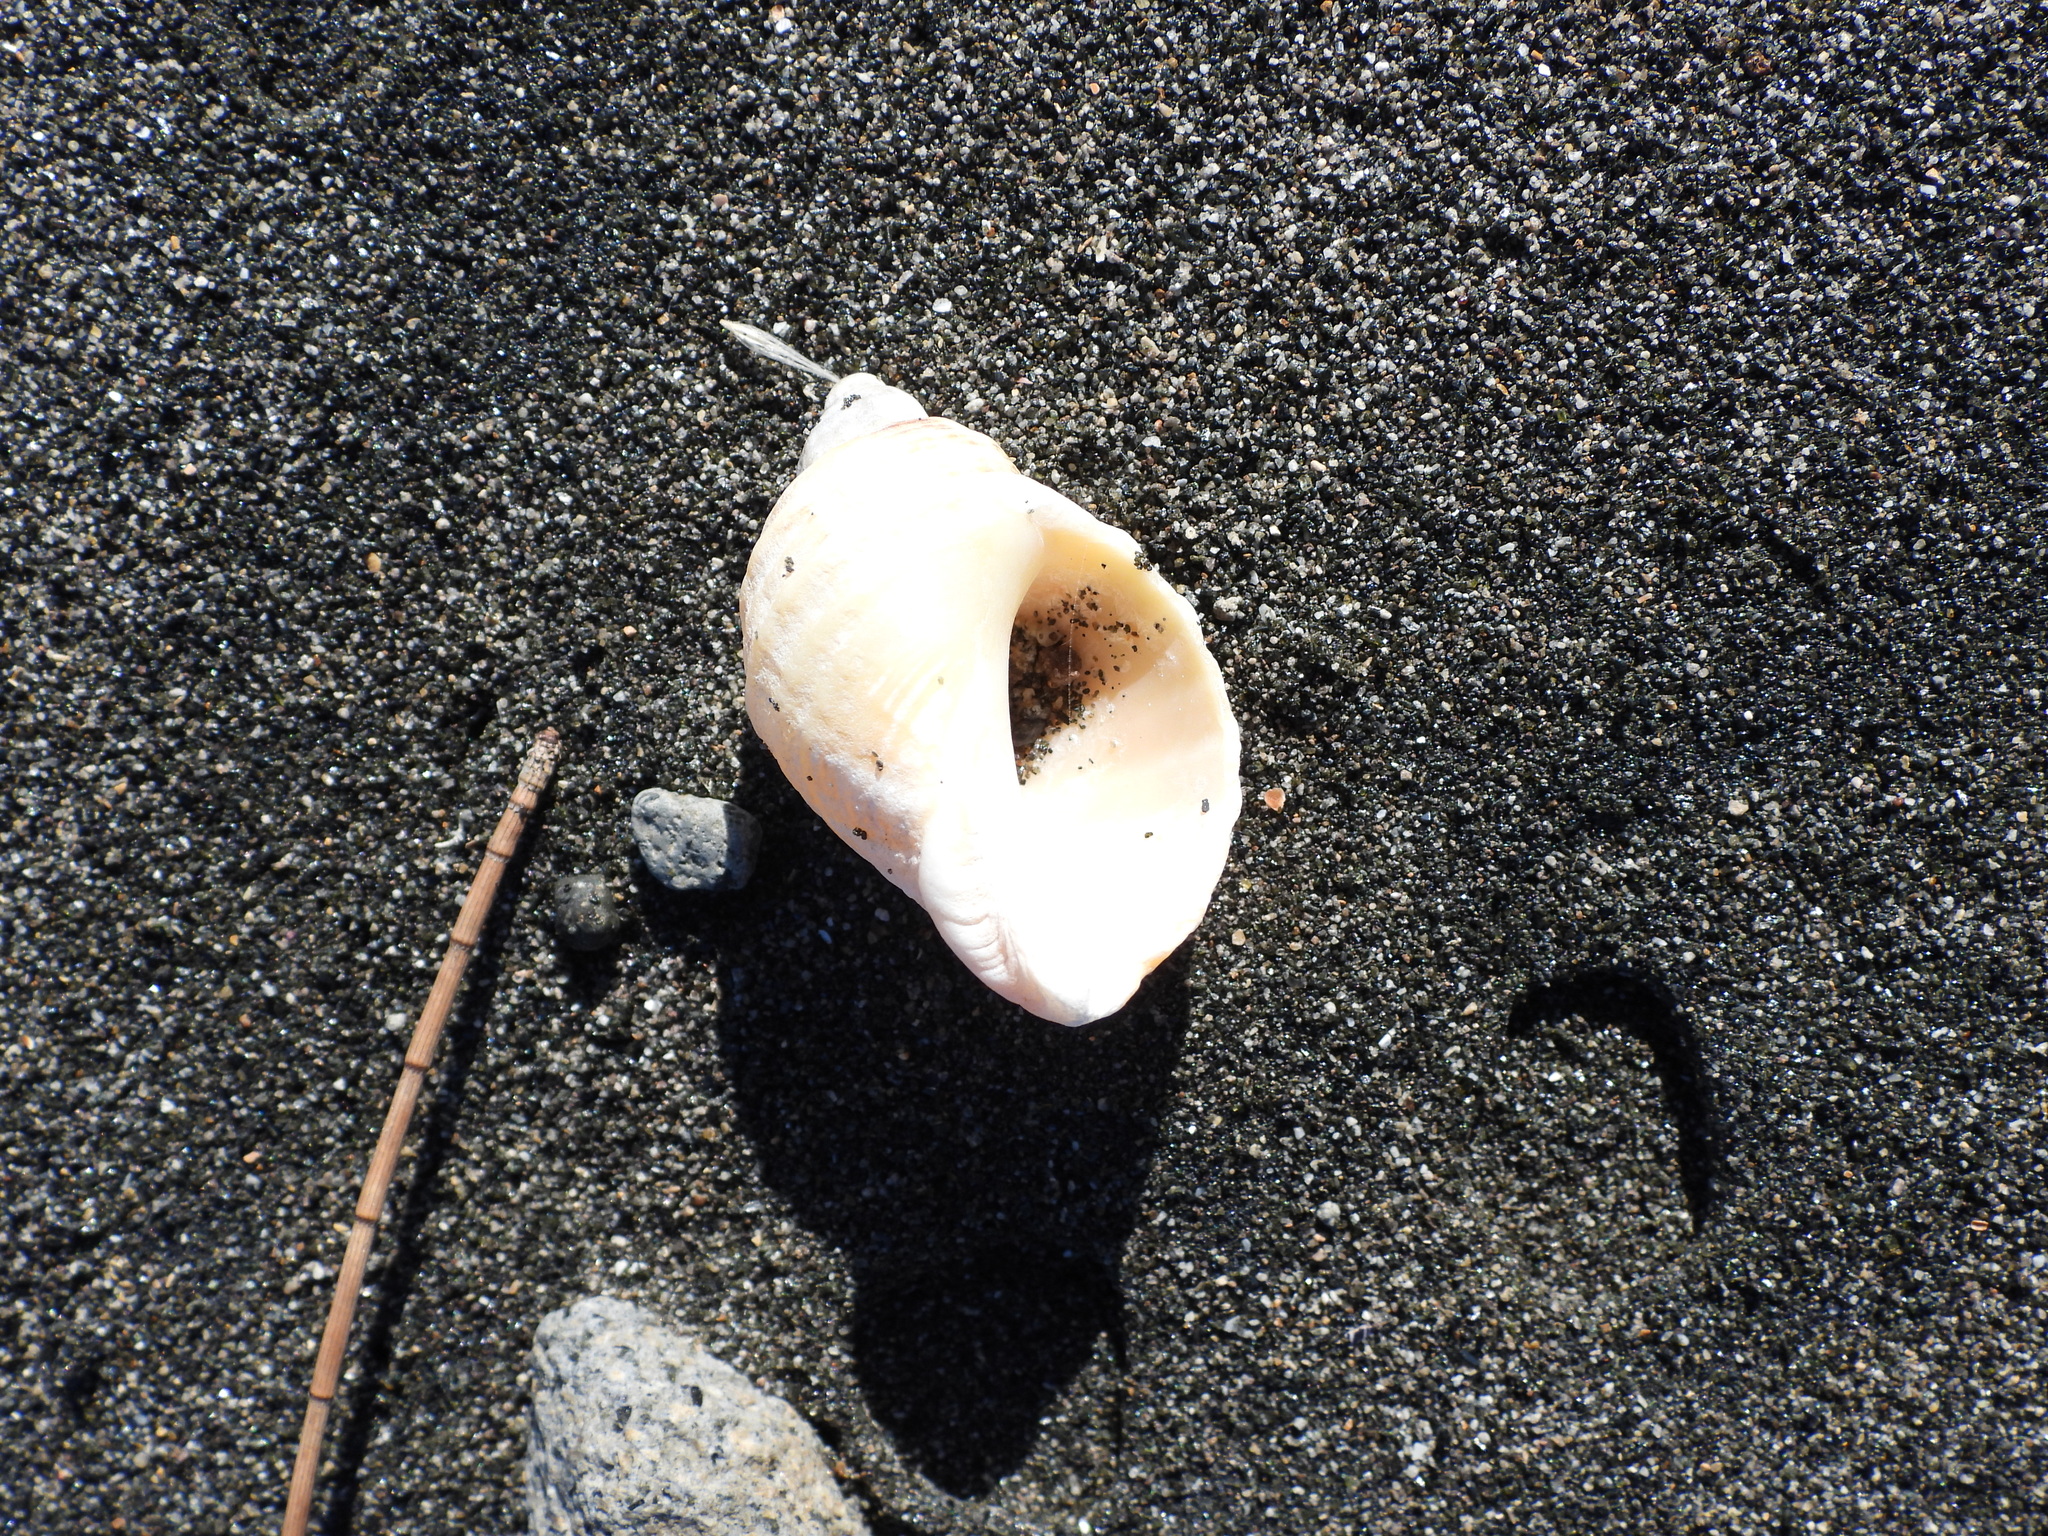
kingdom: Animalia
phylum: Mollusca
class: Gastropoda
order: Neogastropoda
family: Muricidae
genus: Dicathais
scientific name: Dicathais orbita
